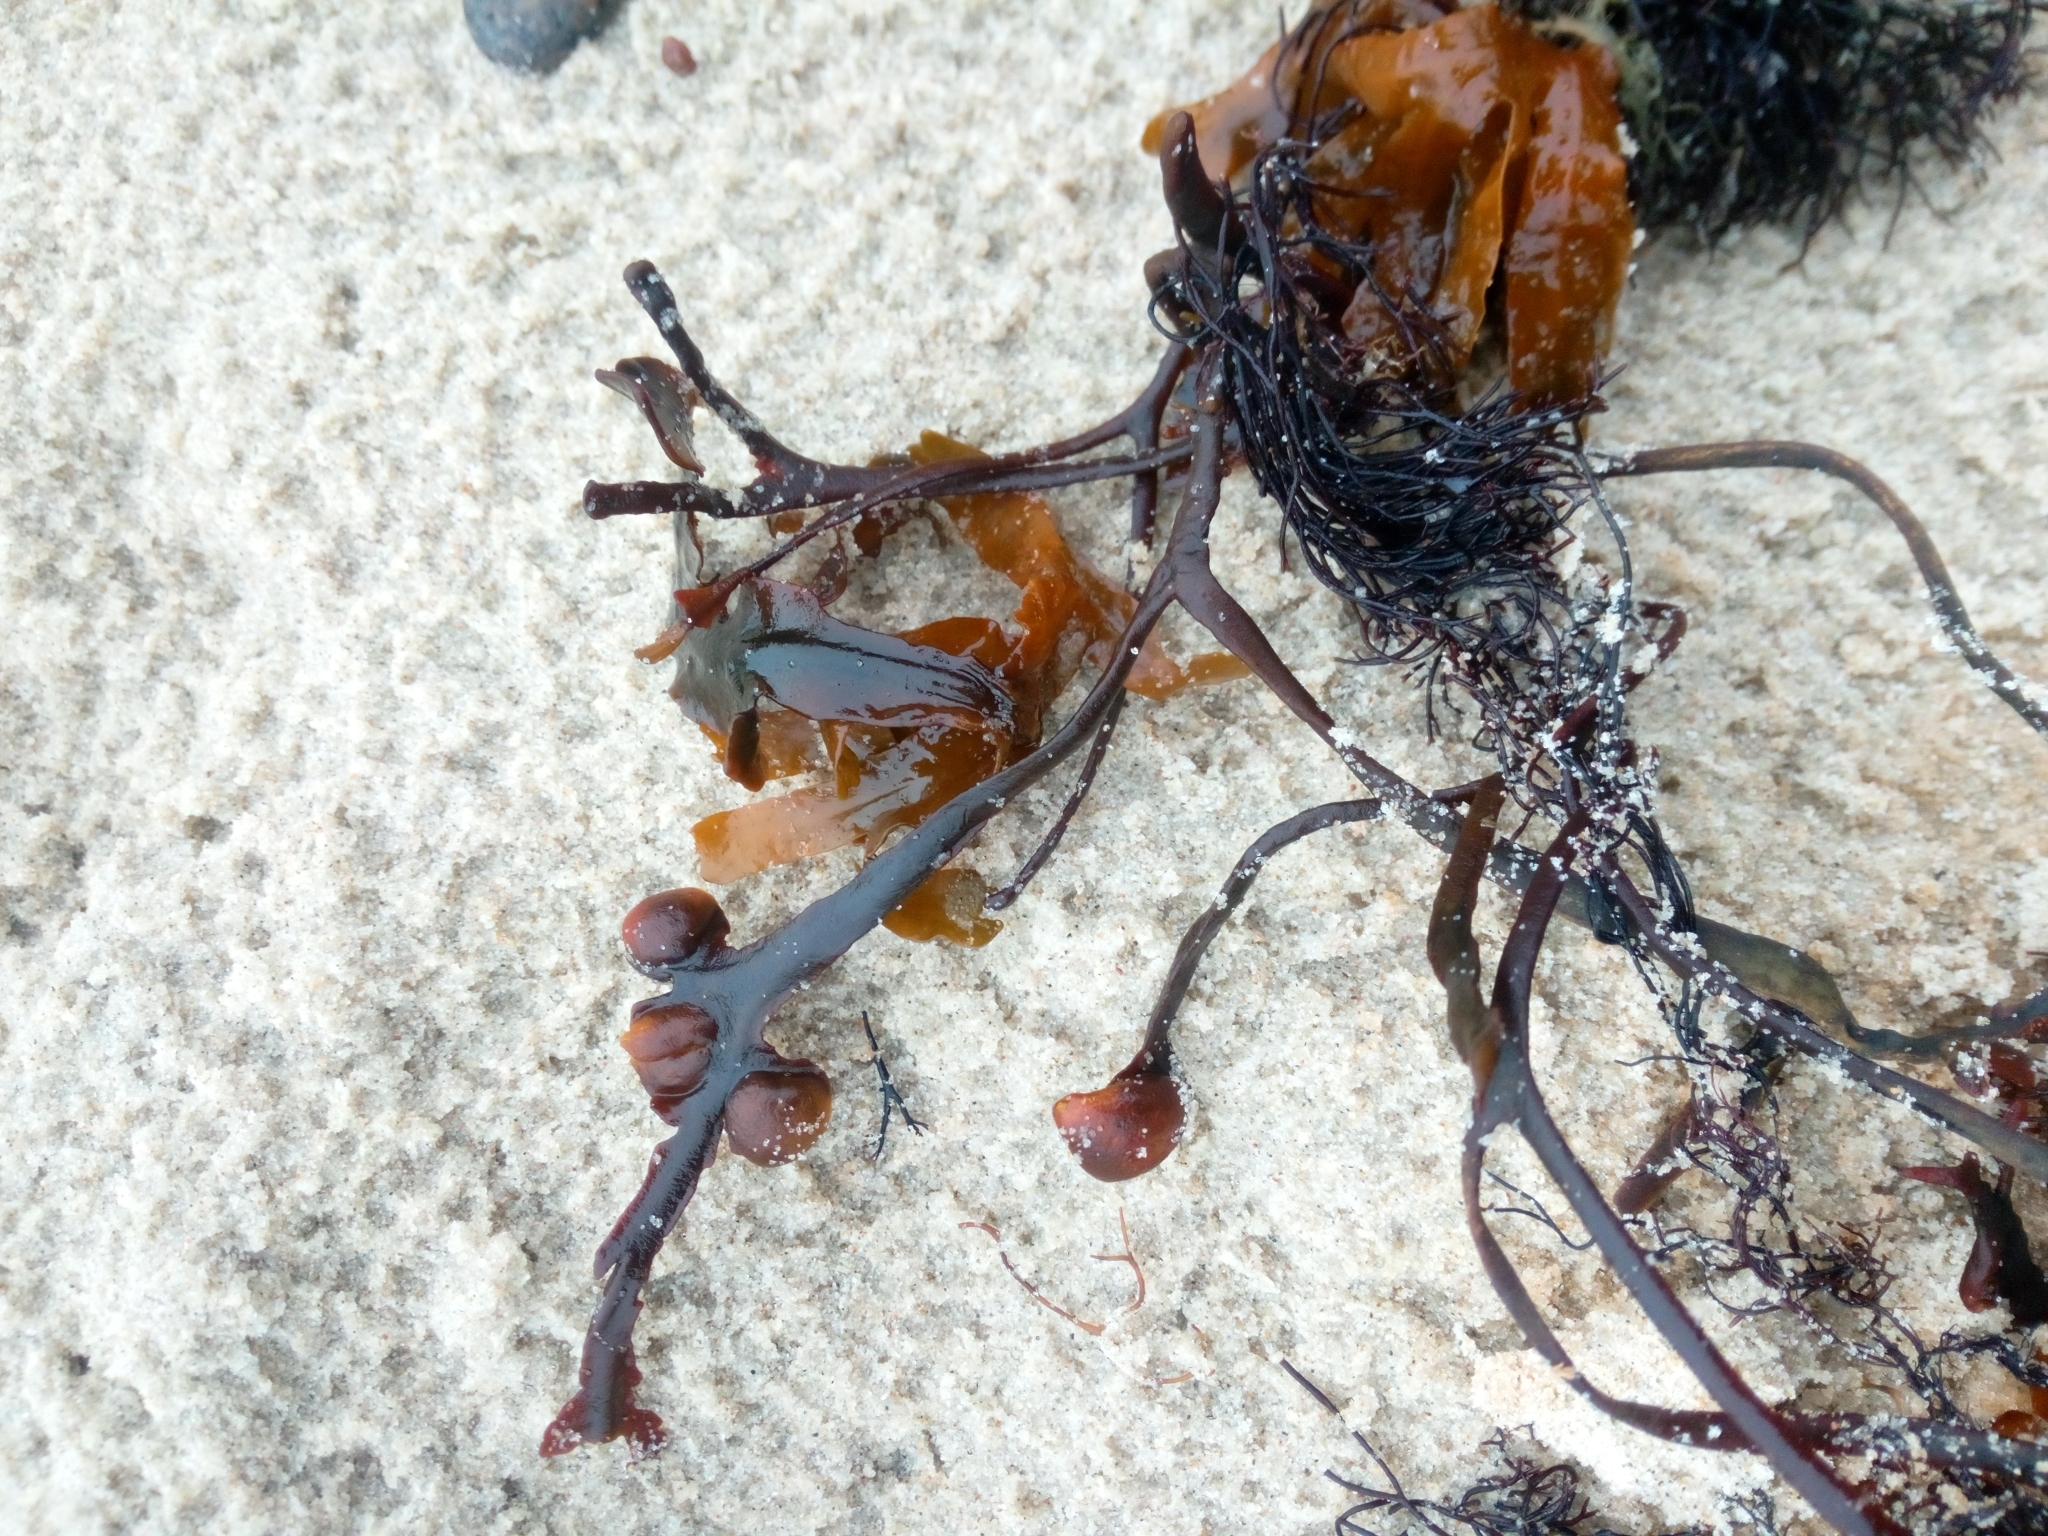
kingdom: Chromista
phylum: Ochrophyta
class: Phaeophyceae
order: Fucales
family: Fucaceae
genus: Fucus
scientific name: Fucus vesiculosus
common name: Bladder wrack
